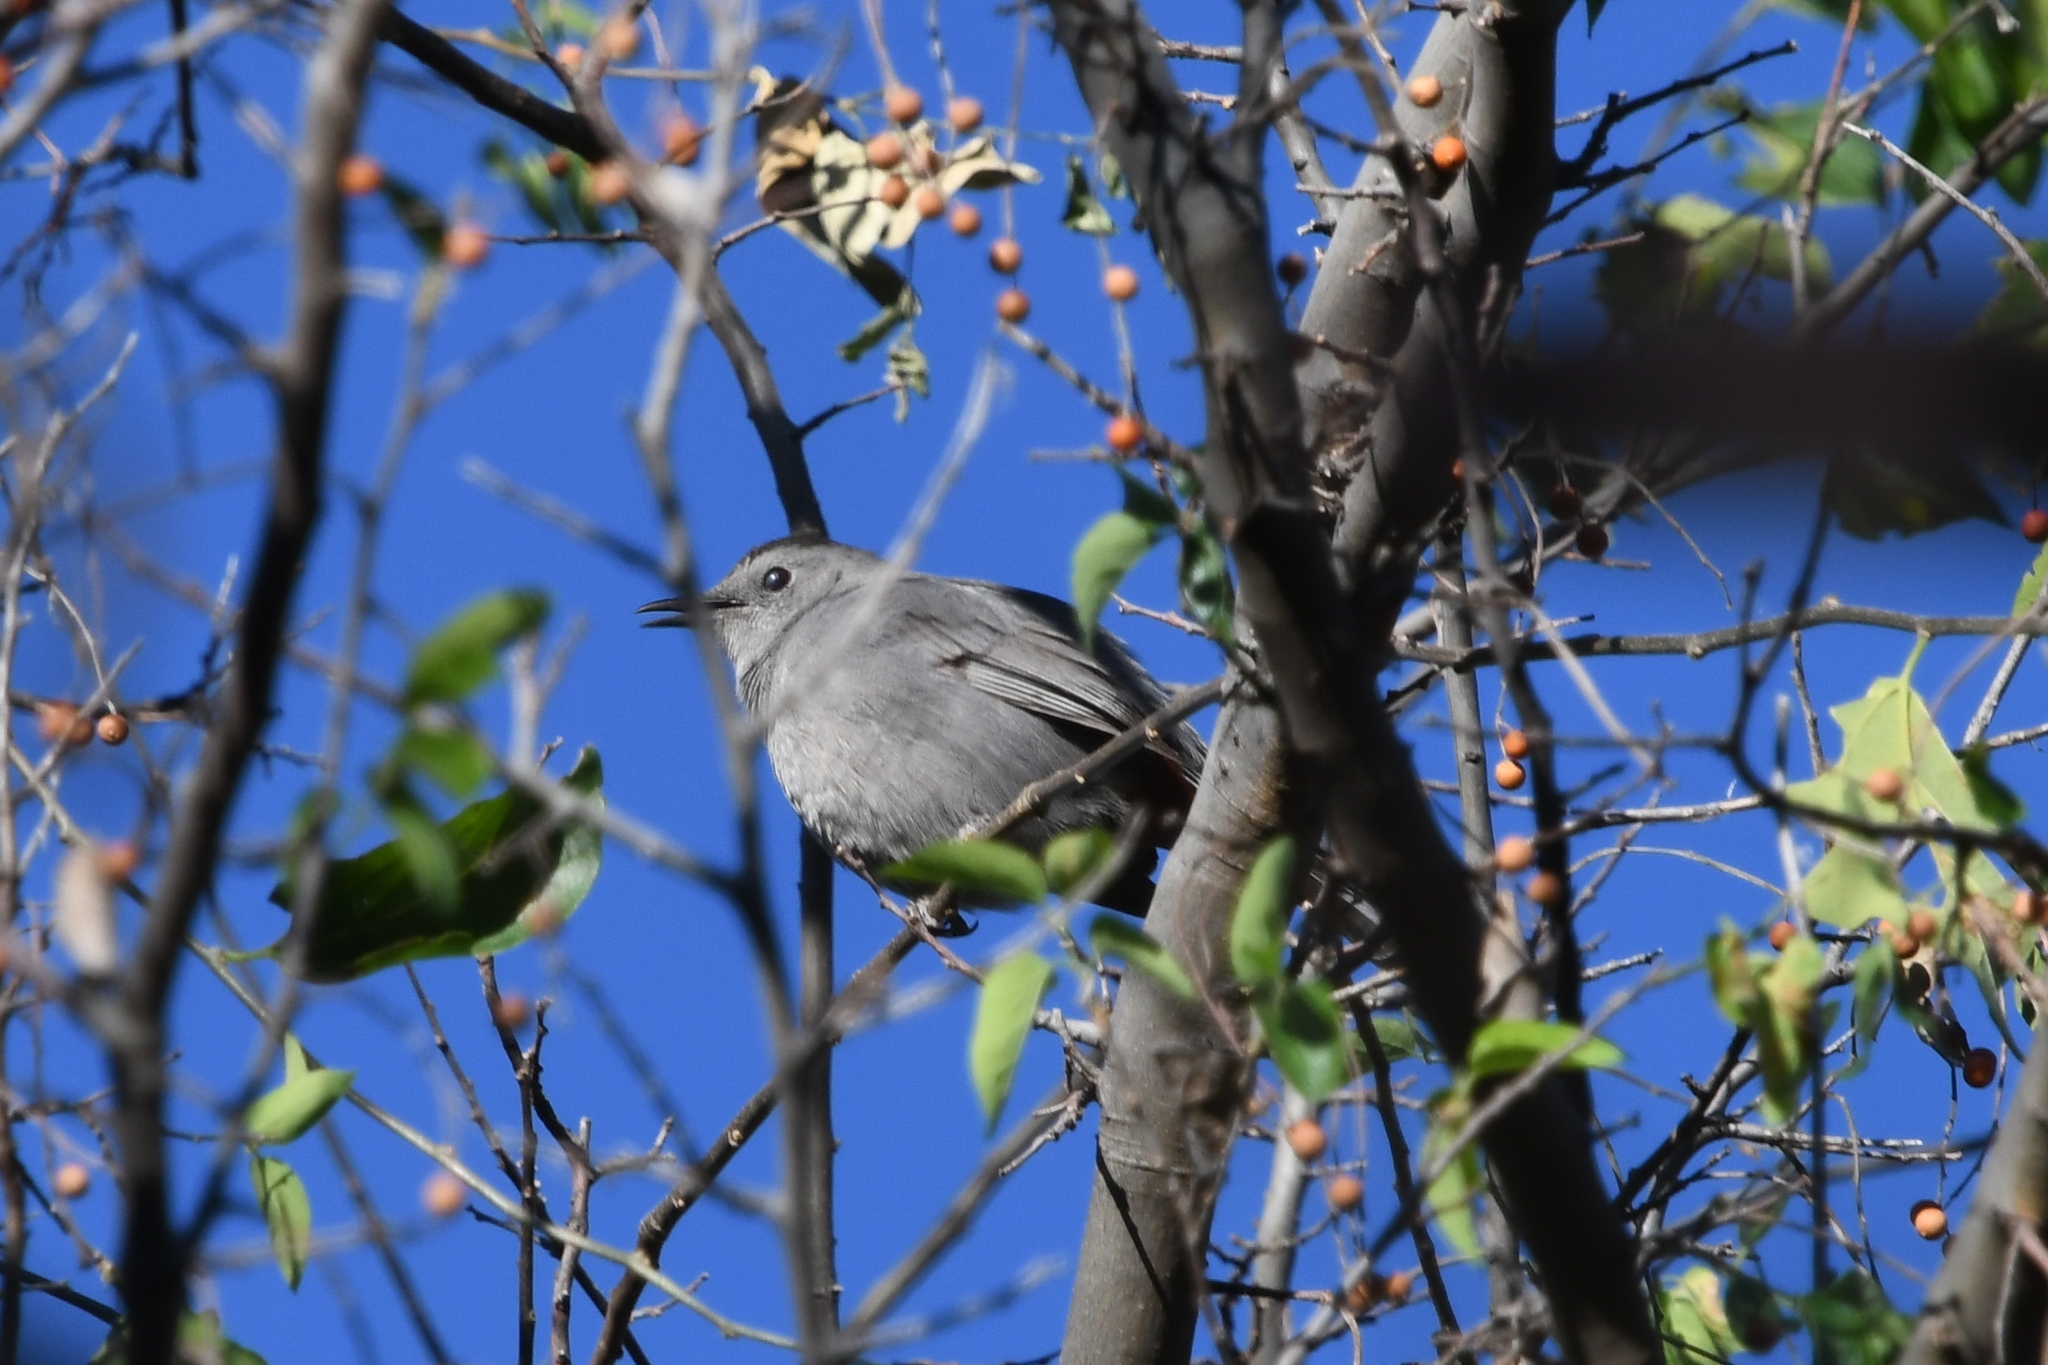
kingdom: Animalia
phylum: Chordata
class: Aves
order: Passeriformes
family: Mimidae
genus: Dumetella
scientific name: Dumetella carolinensis
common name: Gray catbird
